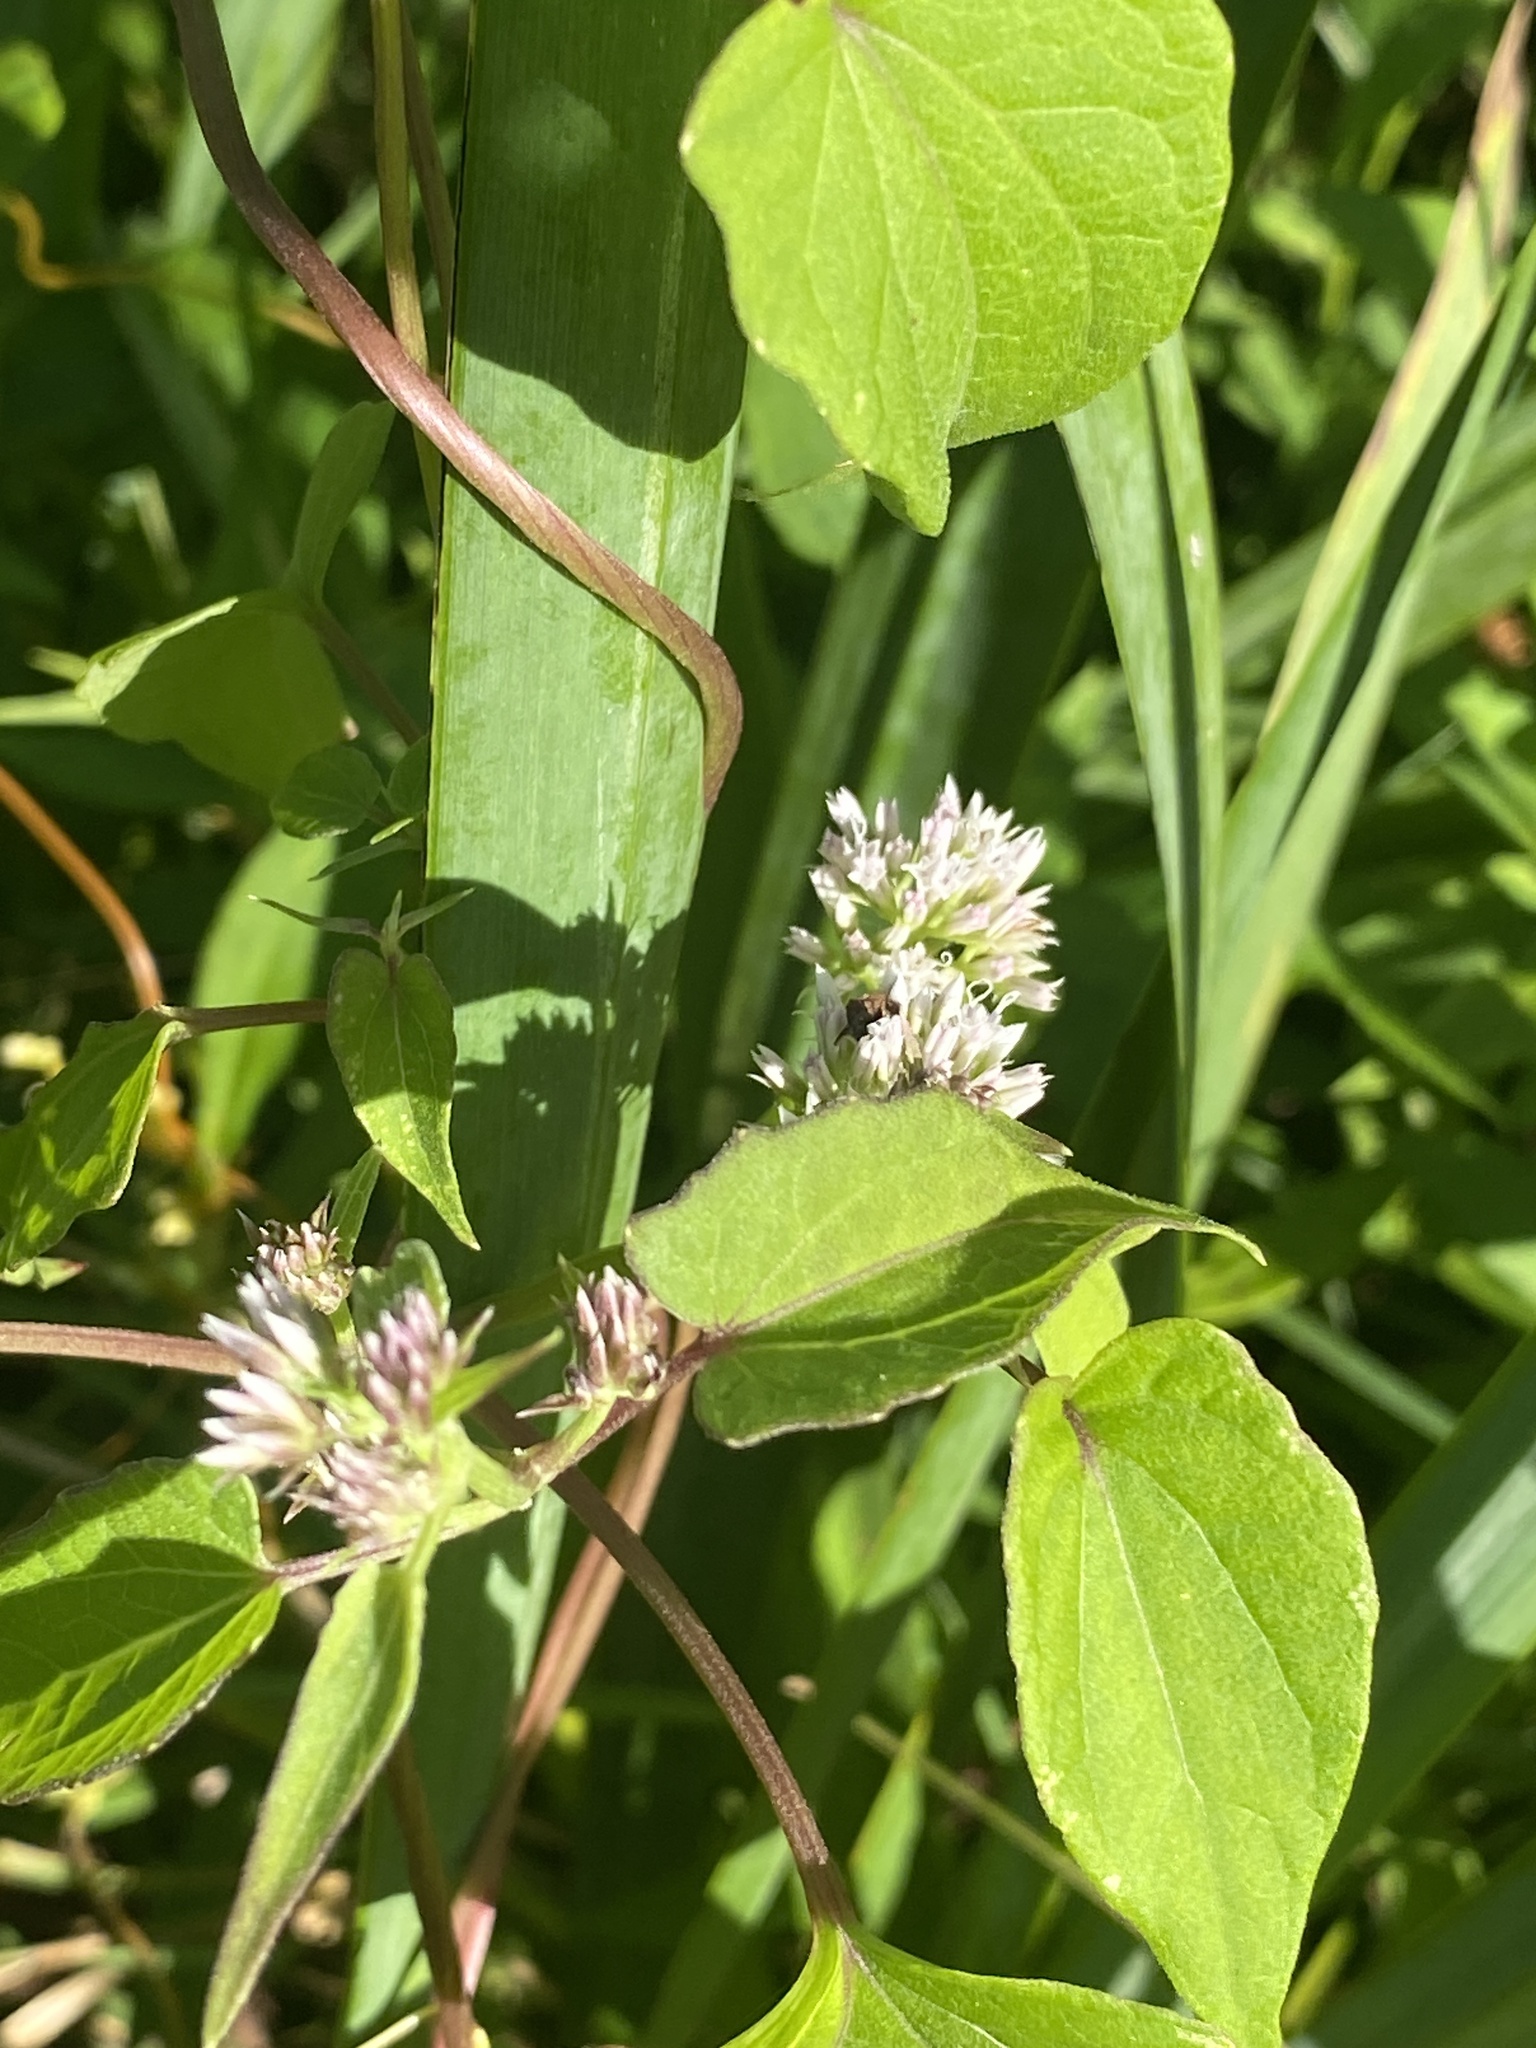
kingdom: Plantae
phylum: Tracheophyta
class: Magnoliopsida
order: Asterales
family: Asteraceae
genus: Mikania
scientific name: Mikania scandens
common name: Climbing hempvine
